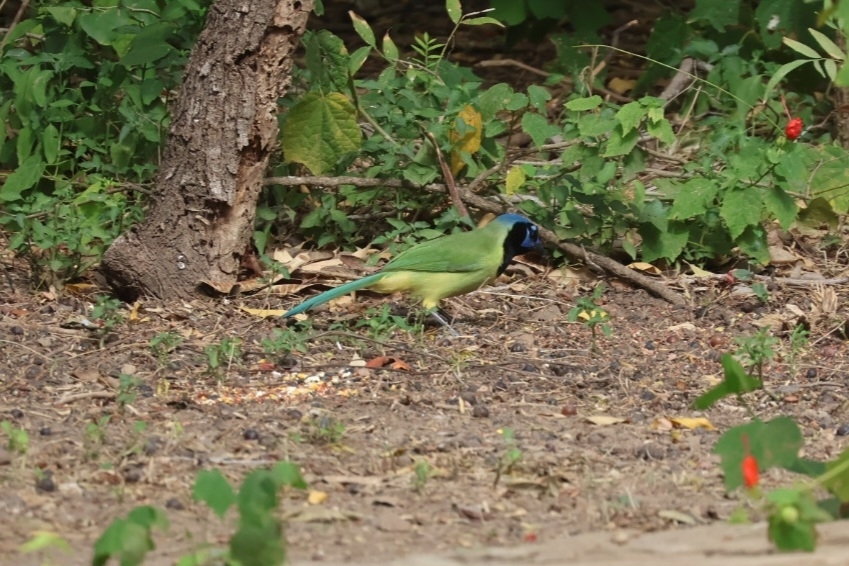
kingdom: Animalia
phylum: Chordata
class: Aves
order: Passeriformes
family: Corvidae
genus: Cyanocorax
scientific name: Cyanocorax yncas
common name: Green jay
